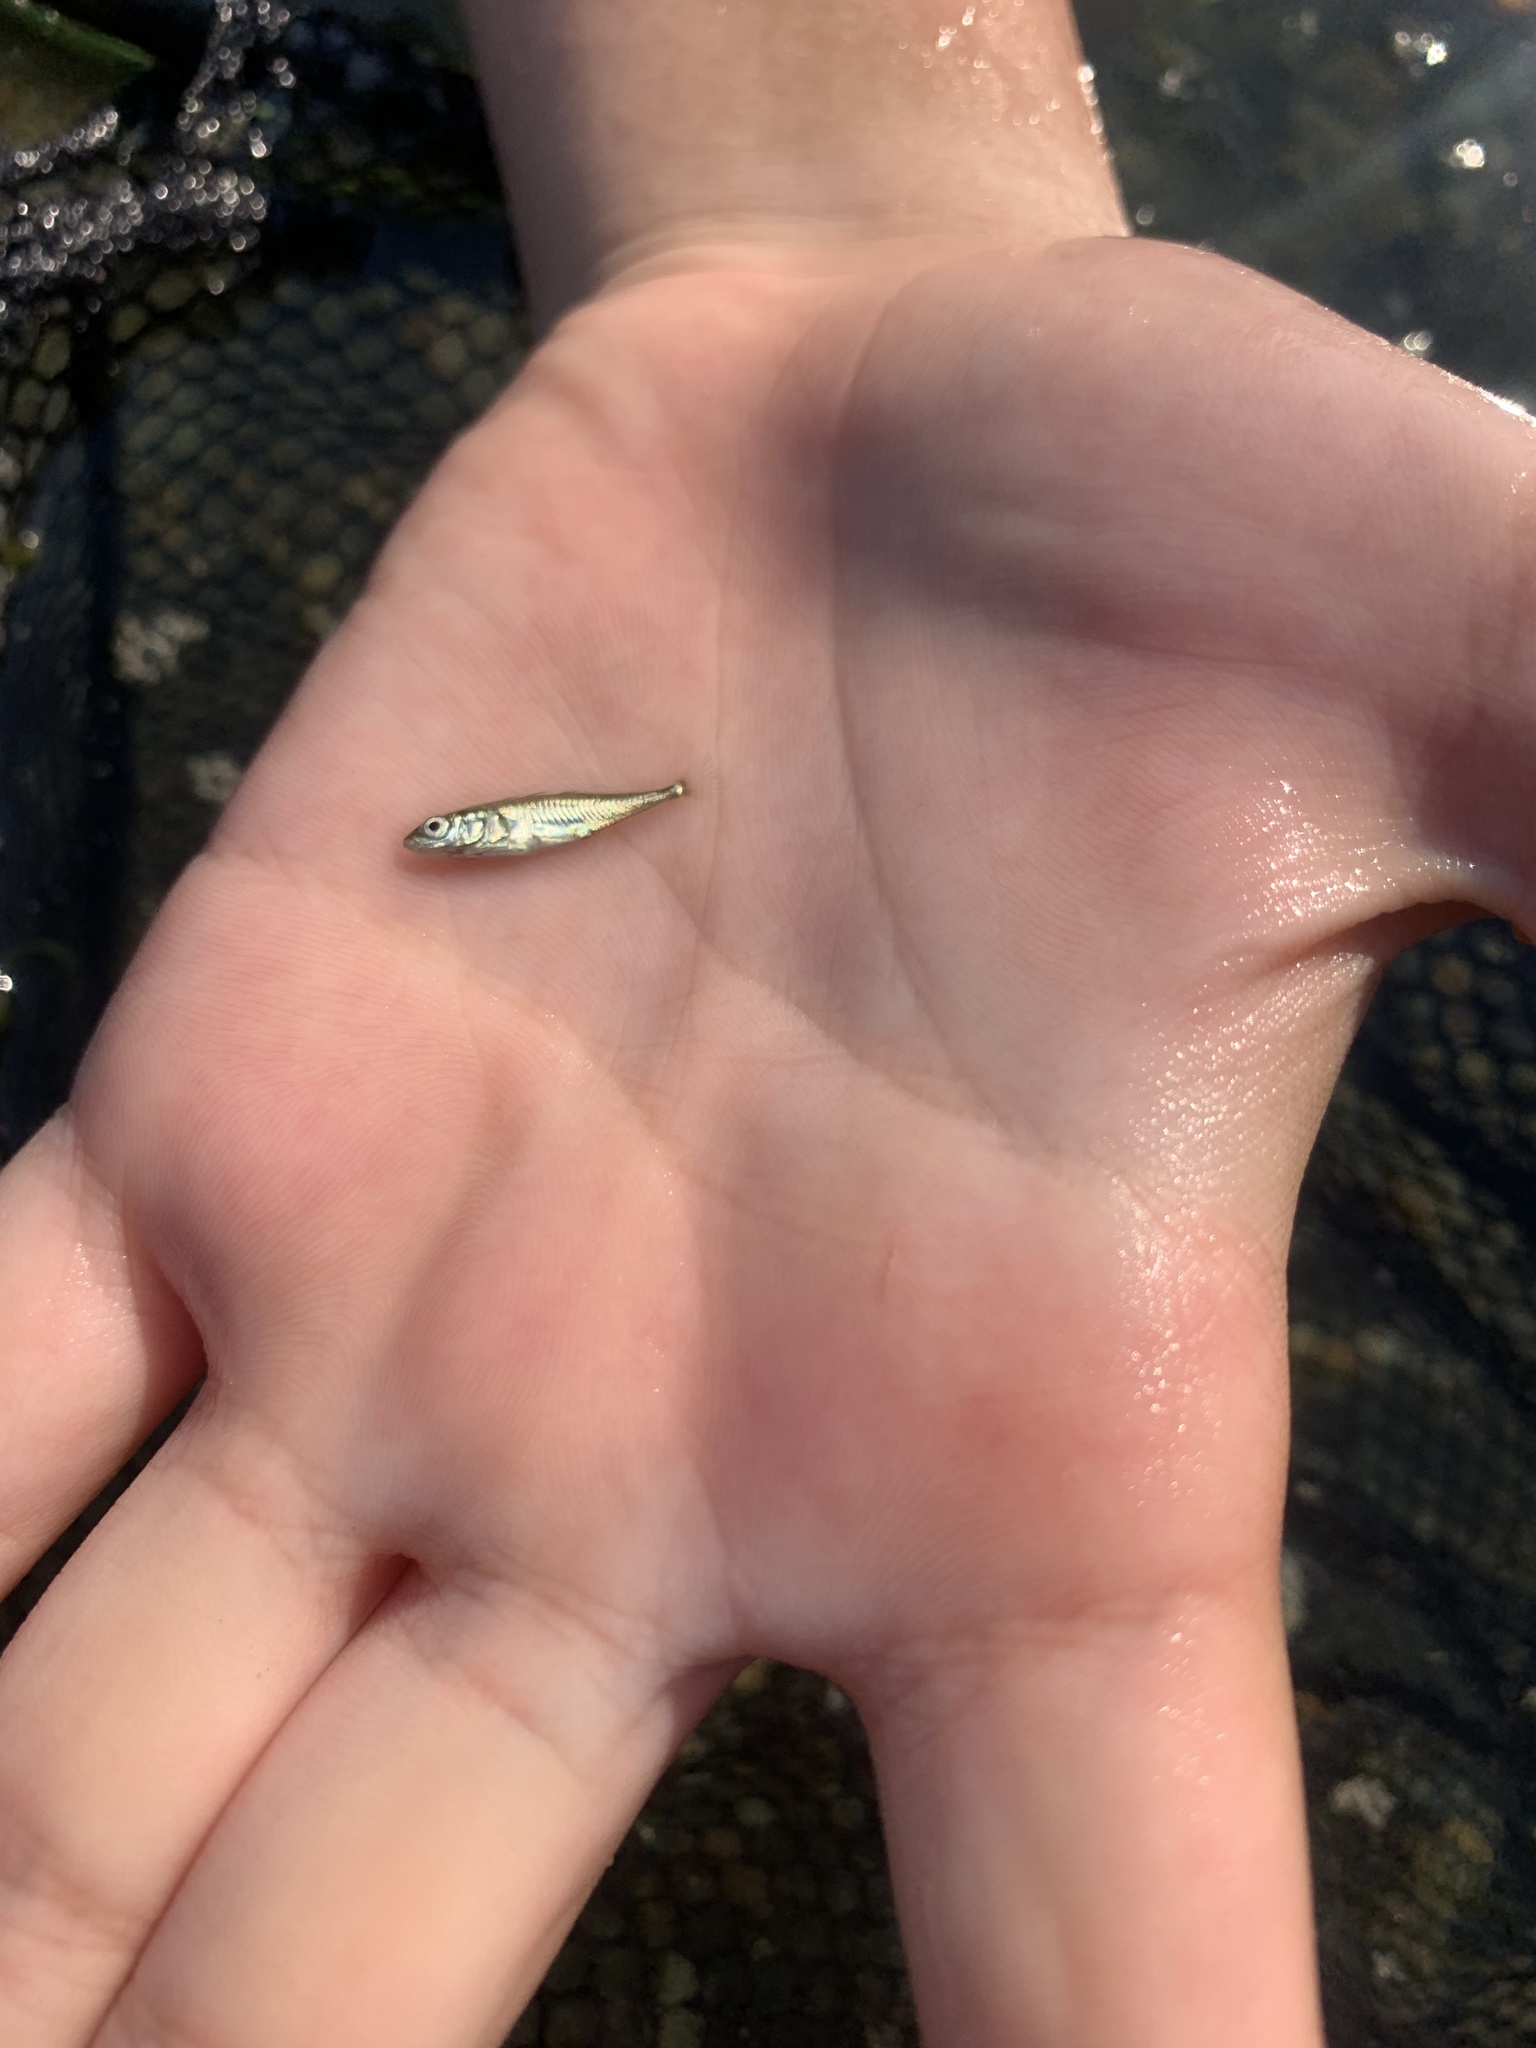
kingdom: Animalia
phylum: Chordata
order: Gasterosteiformes
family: Gasterosteidae
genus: Gasterosteus
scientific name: Gasterosteus aculeatus
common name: Three-spined stickleback
